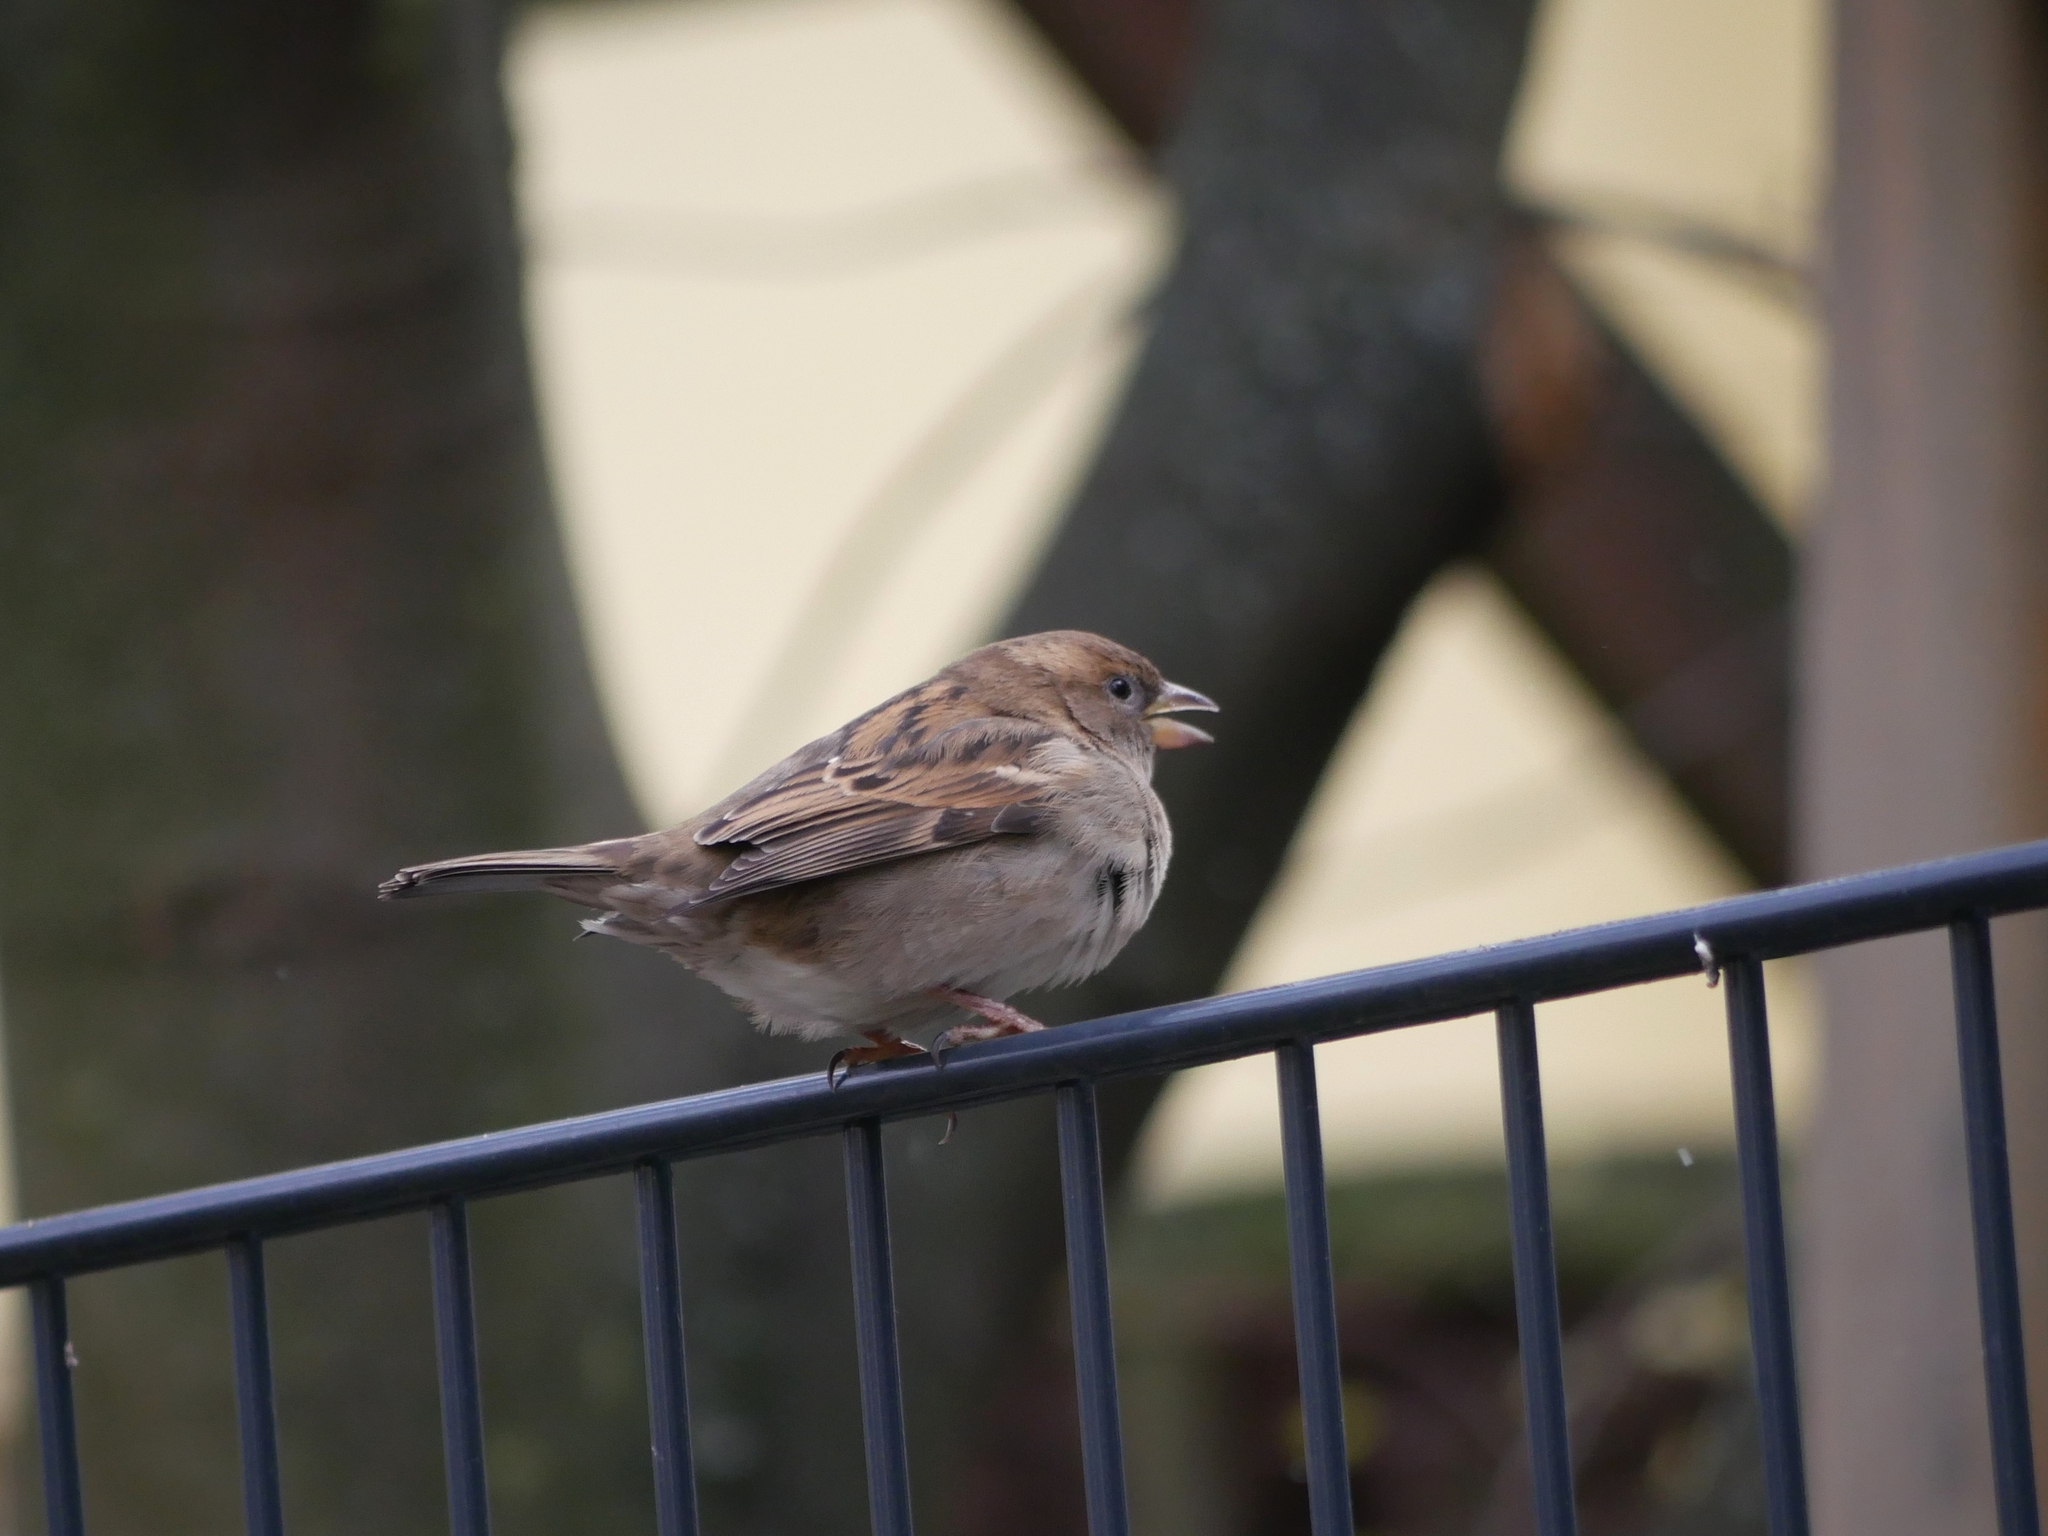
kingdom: Animalia
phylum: Chordata
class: Aves
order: Passeriformes
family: Passeridae
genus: Passer
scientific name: Passer domesticus
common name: House sparrow
